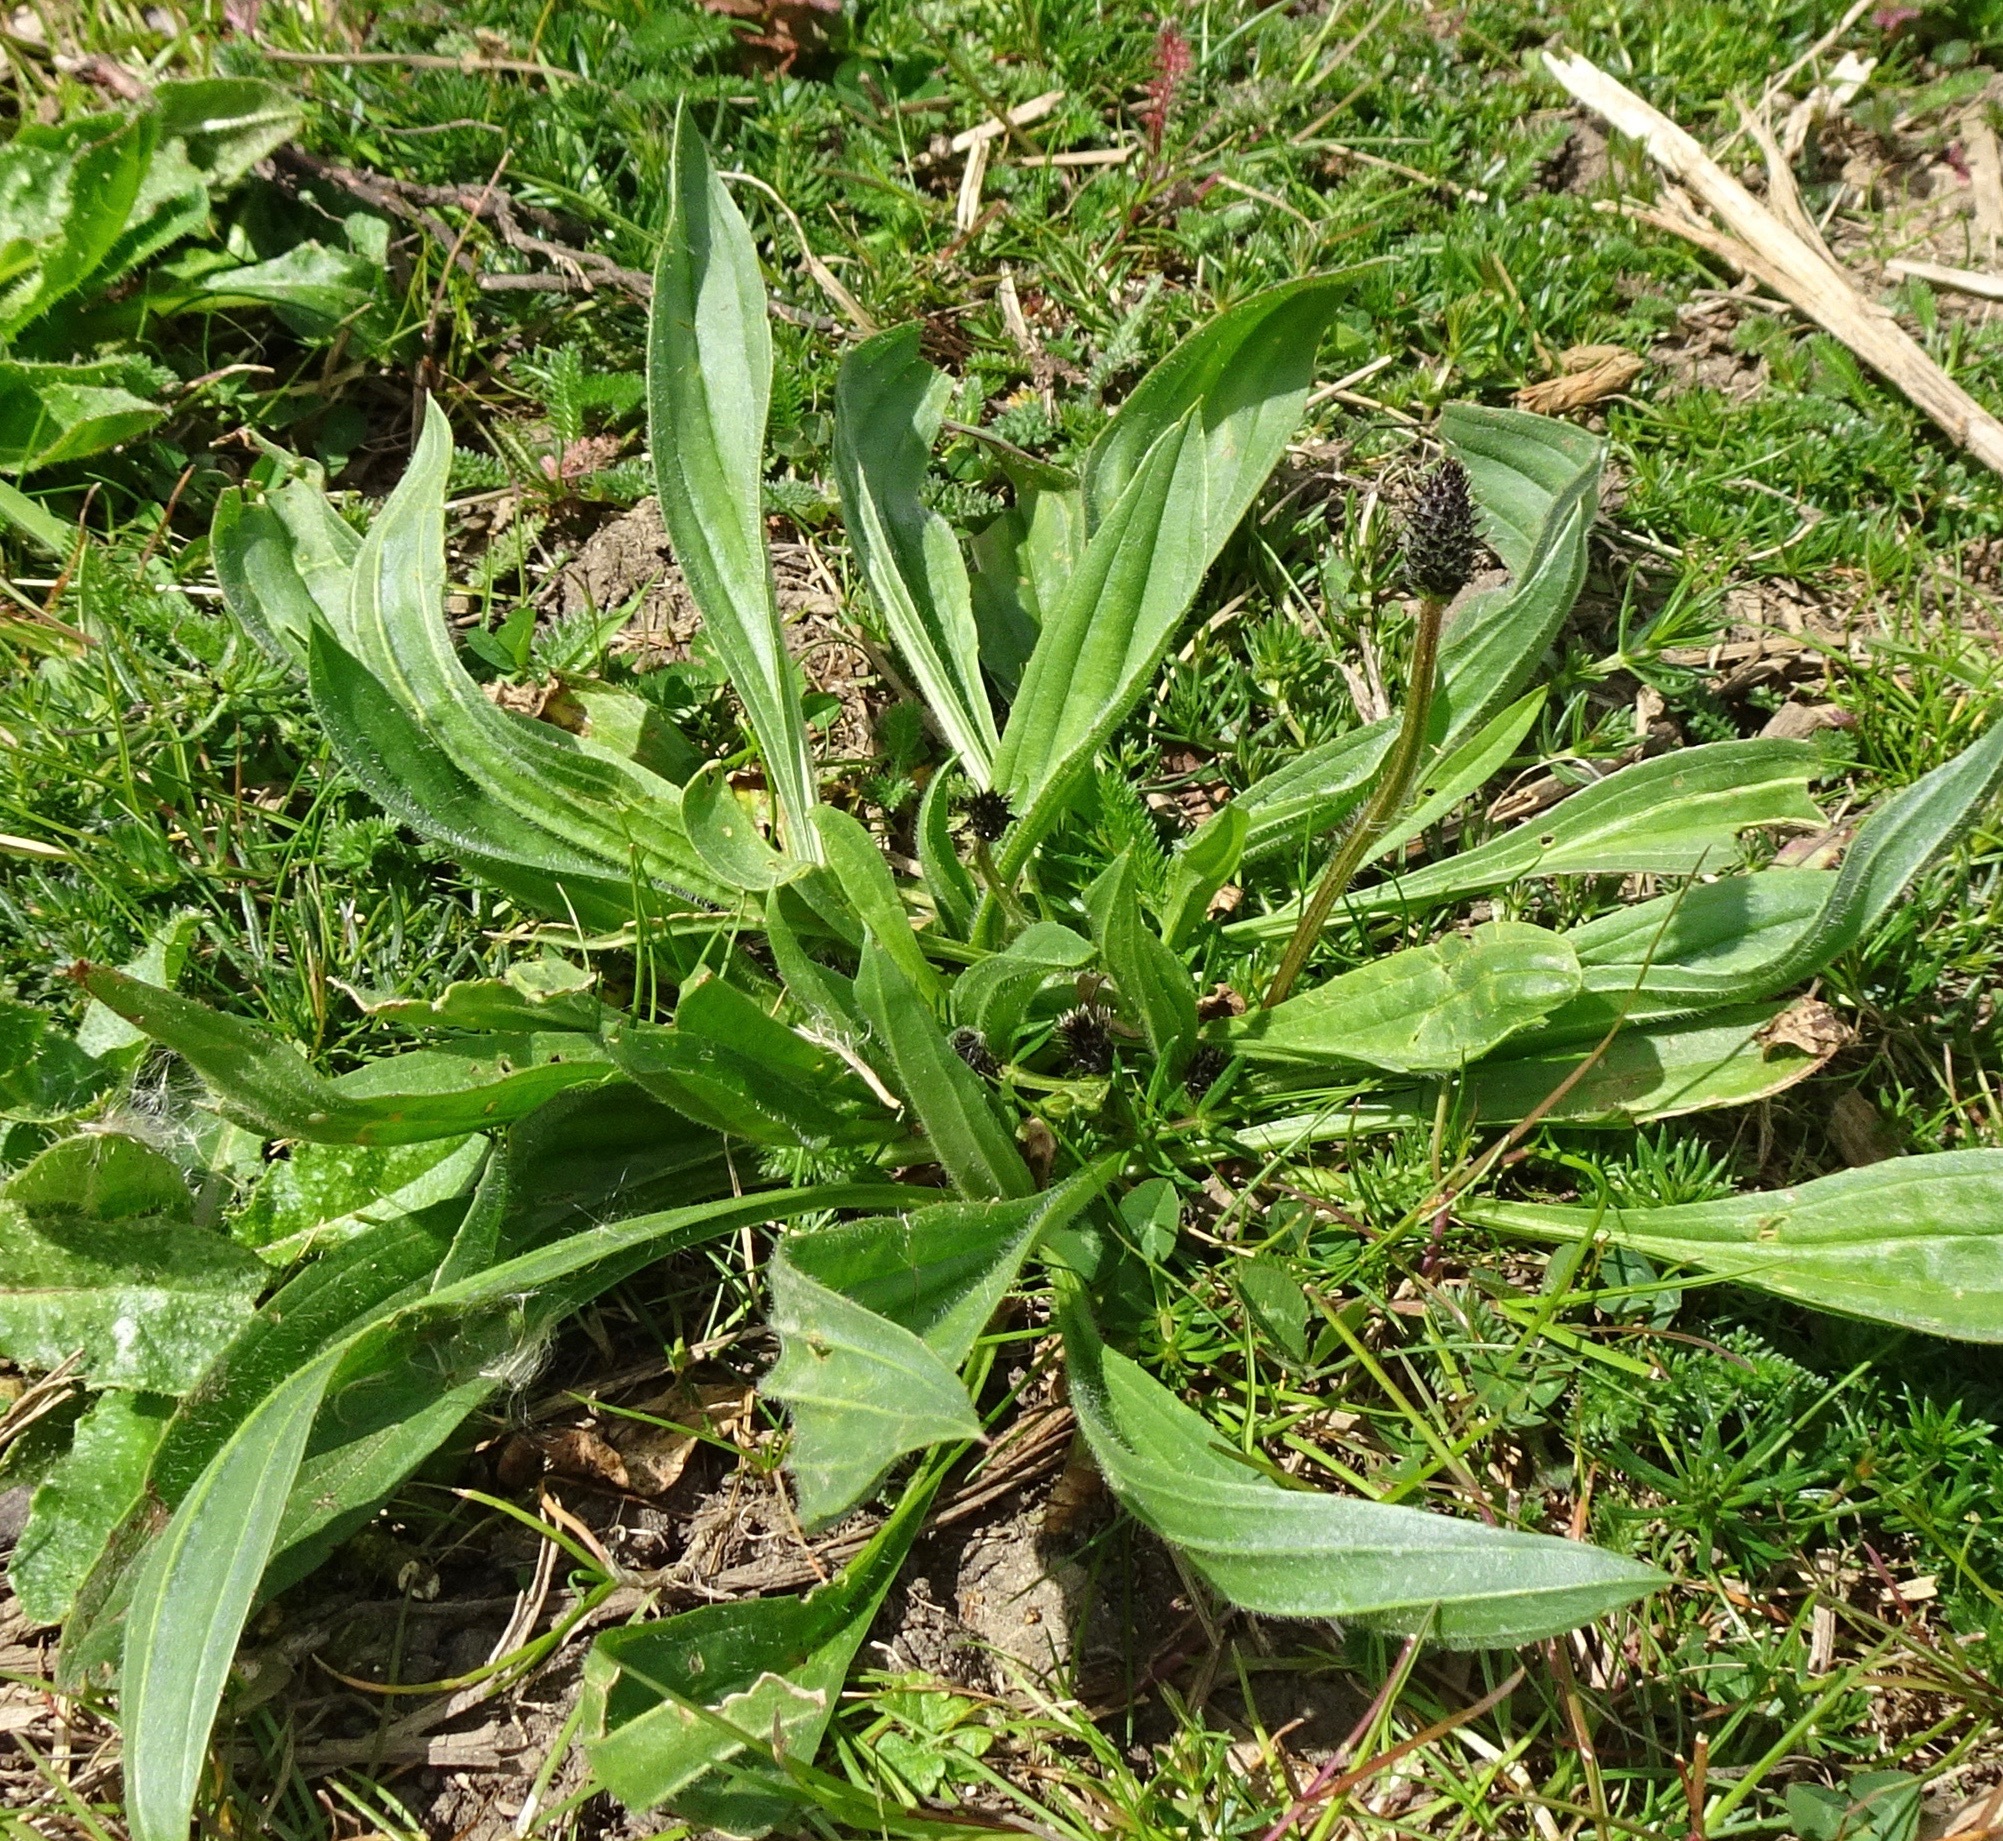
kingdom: Plantae
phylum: Tracheophyta
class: Magnoliopsida
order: Lamiales
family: Plantaginaceae
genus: Plantago
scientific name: Plantago lanceolata
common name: Ribwort plantain
